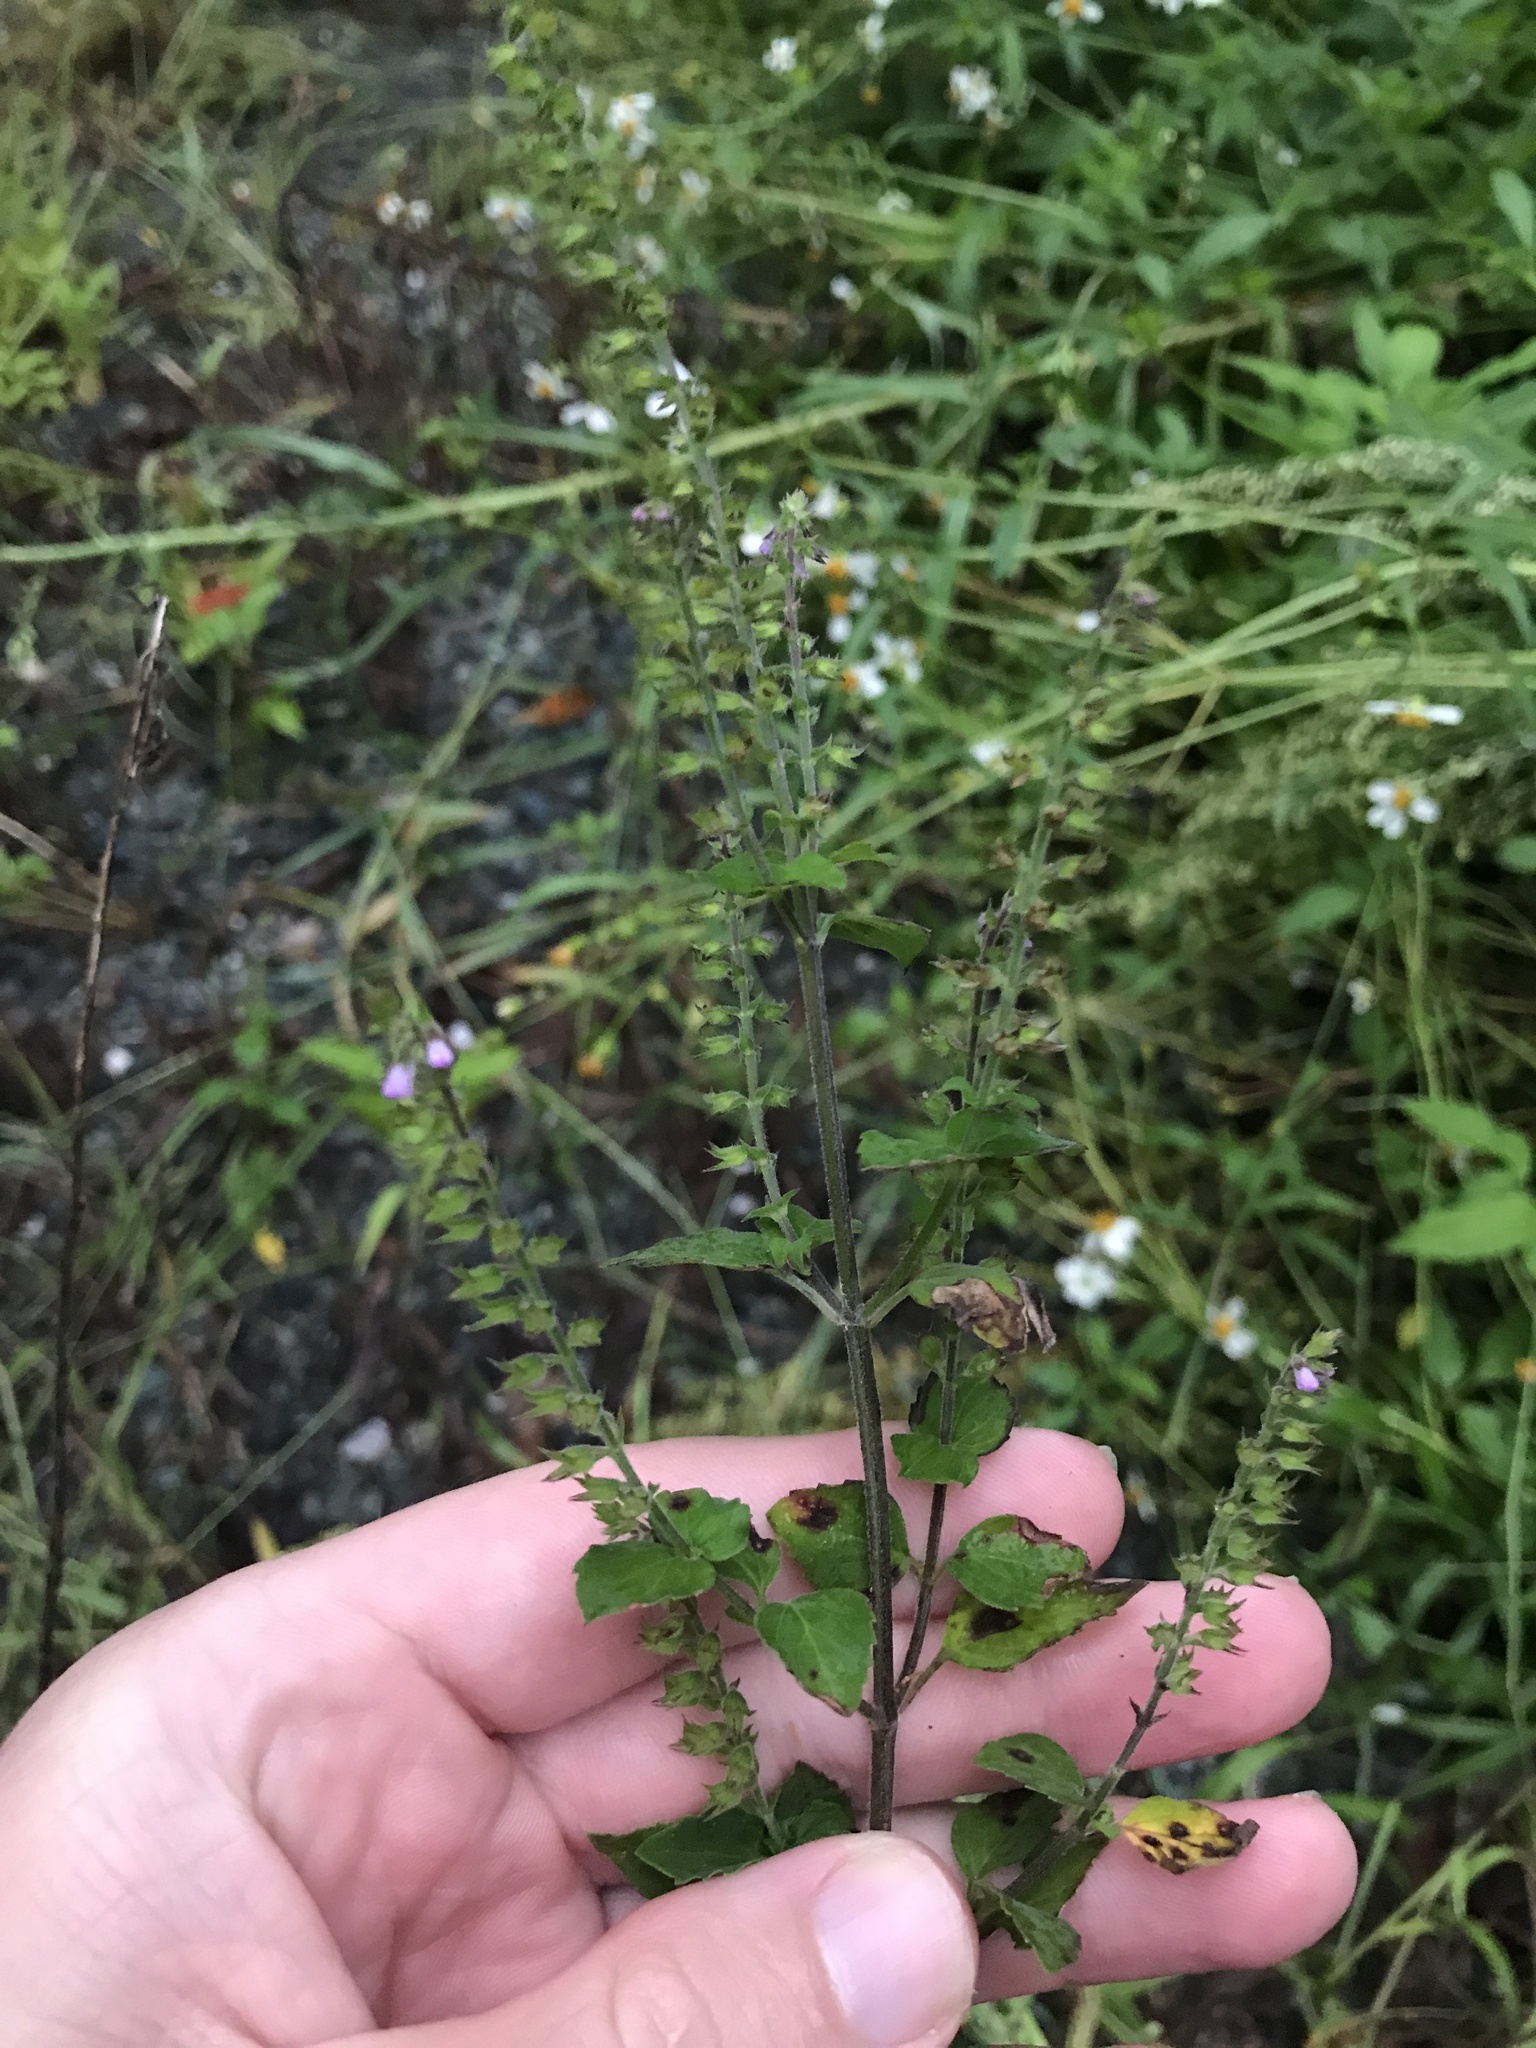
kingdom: Plantae
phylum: Tracheophyta
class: Magnoliopsida
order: Lamiales
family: Lamiaceae
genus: Mosla
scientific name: Mosla scabra
